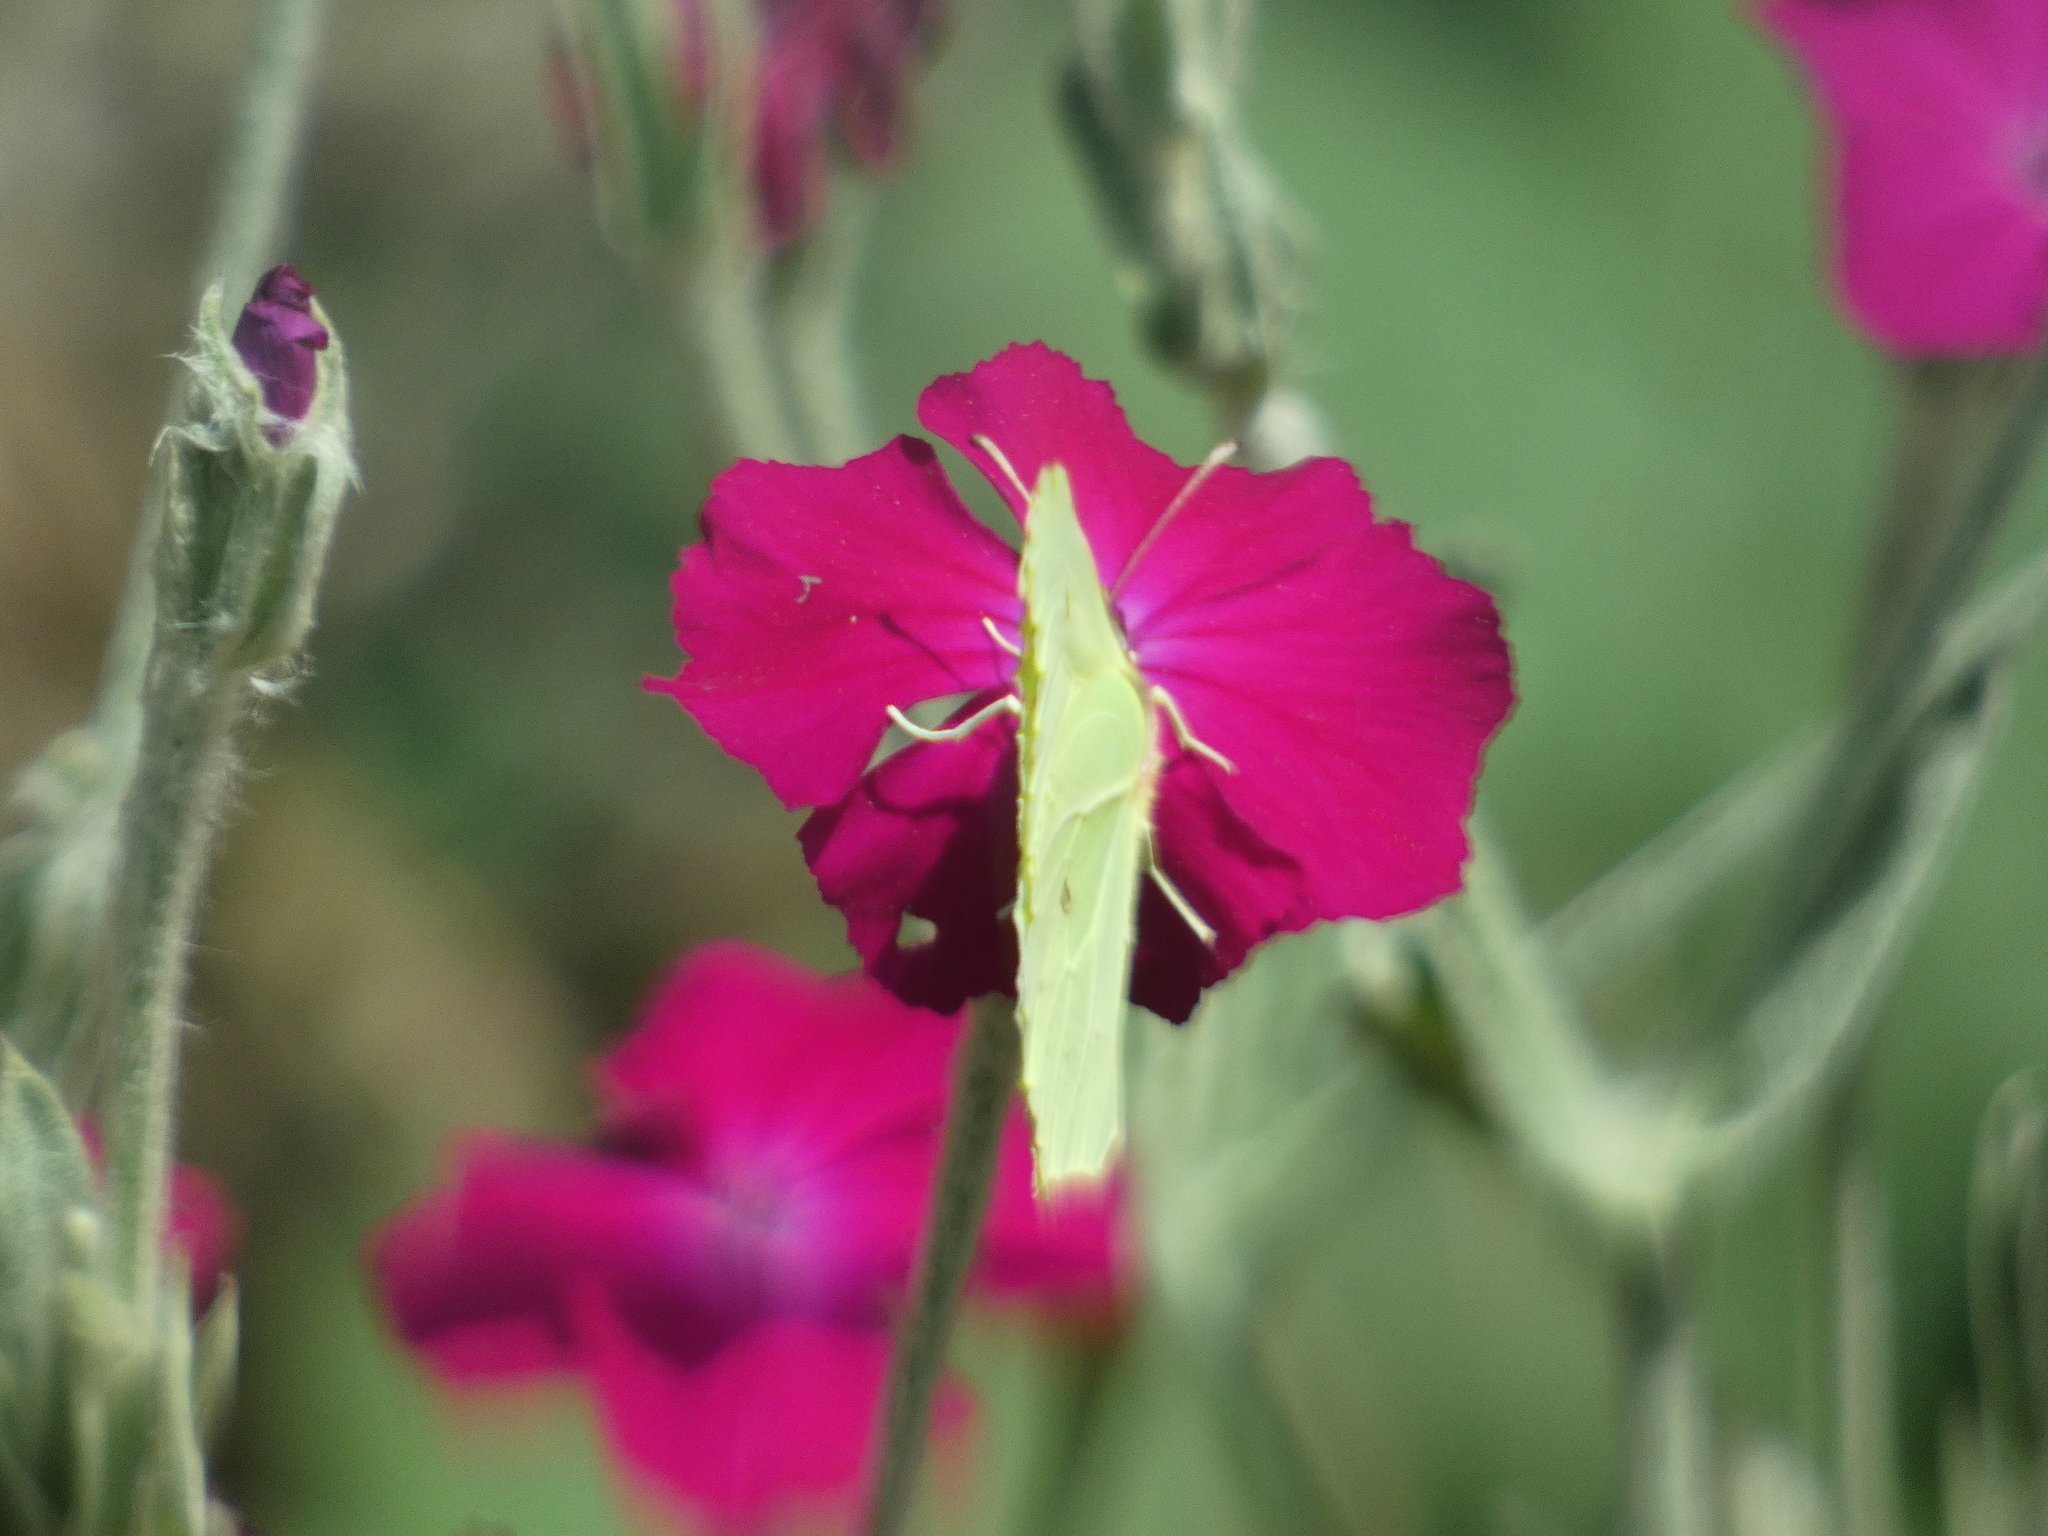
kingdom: Animalia
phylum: Arthropoda
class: Insecta
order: Lepidoptera
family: Pieridae
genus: Gonepteryx
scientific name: Gonepteryx rhamni
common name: Brimstone
